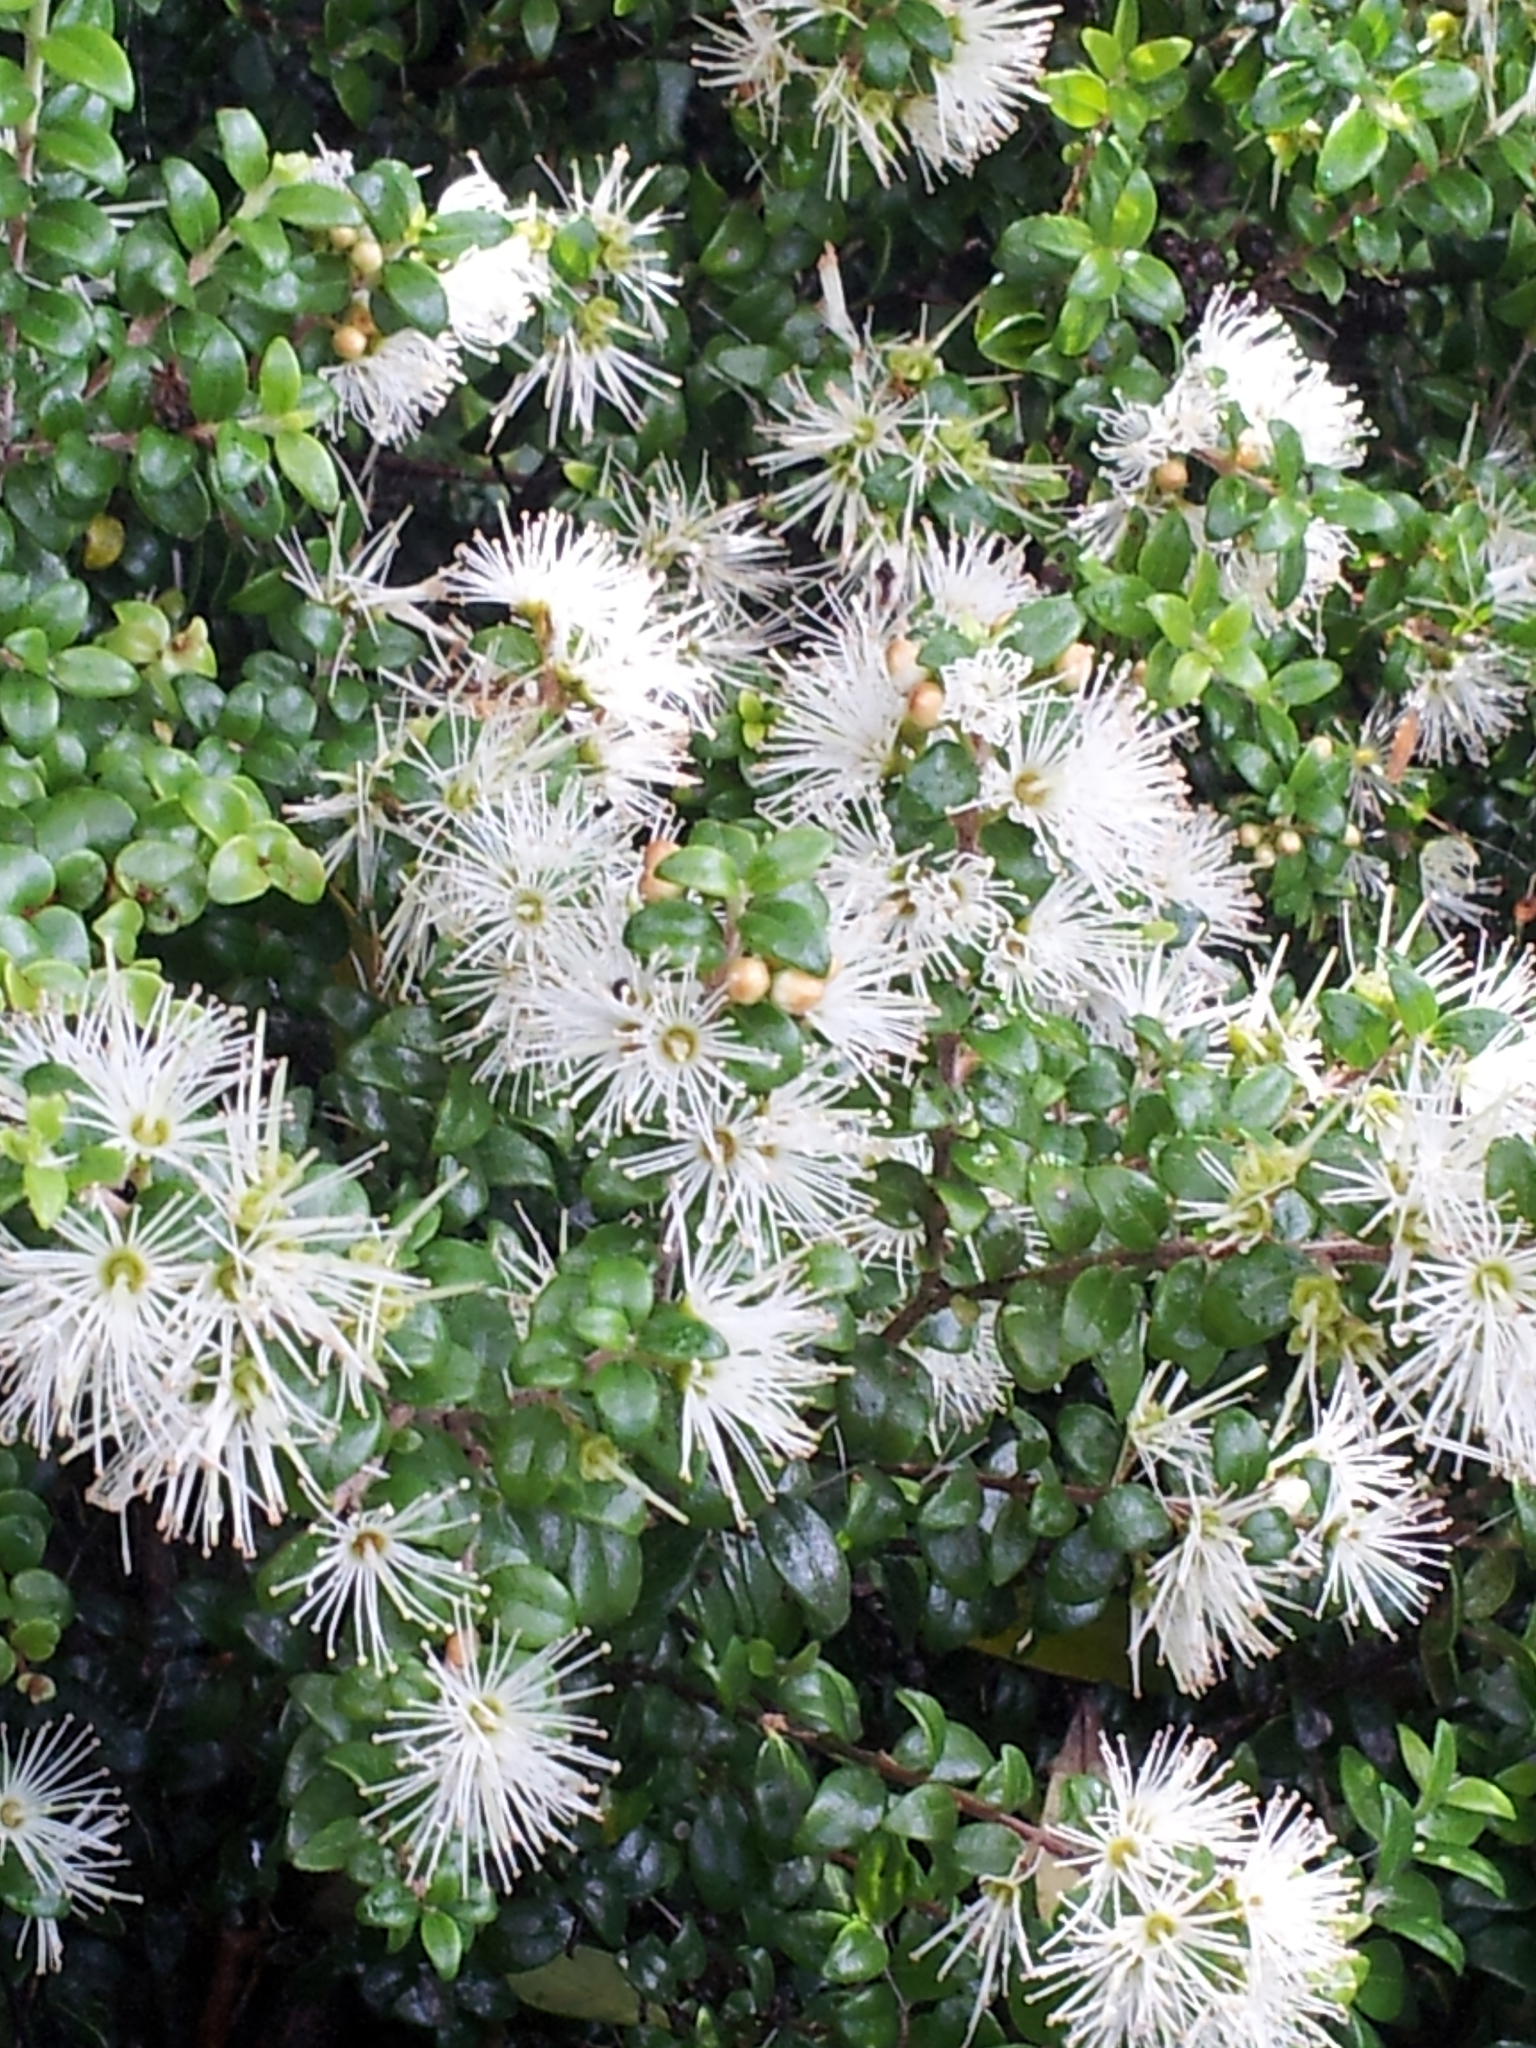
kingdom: Plantae
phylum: Tracheophyta
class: Magnoliopsida
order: Myrtales
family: Myrtaceae
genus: Metrosideros
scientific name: Metrosideros perforata
